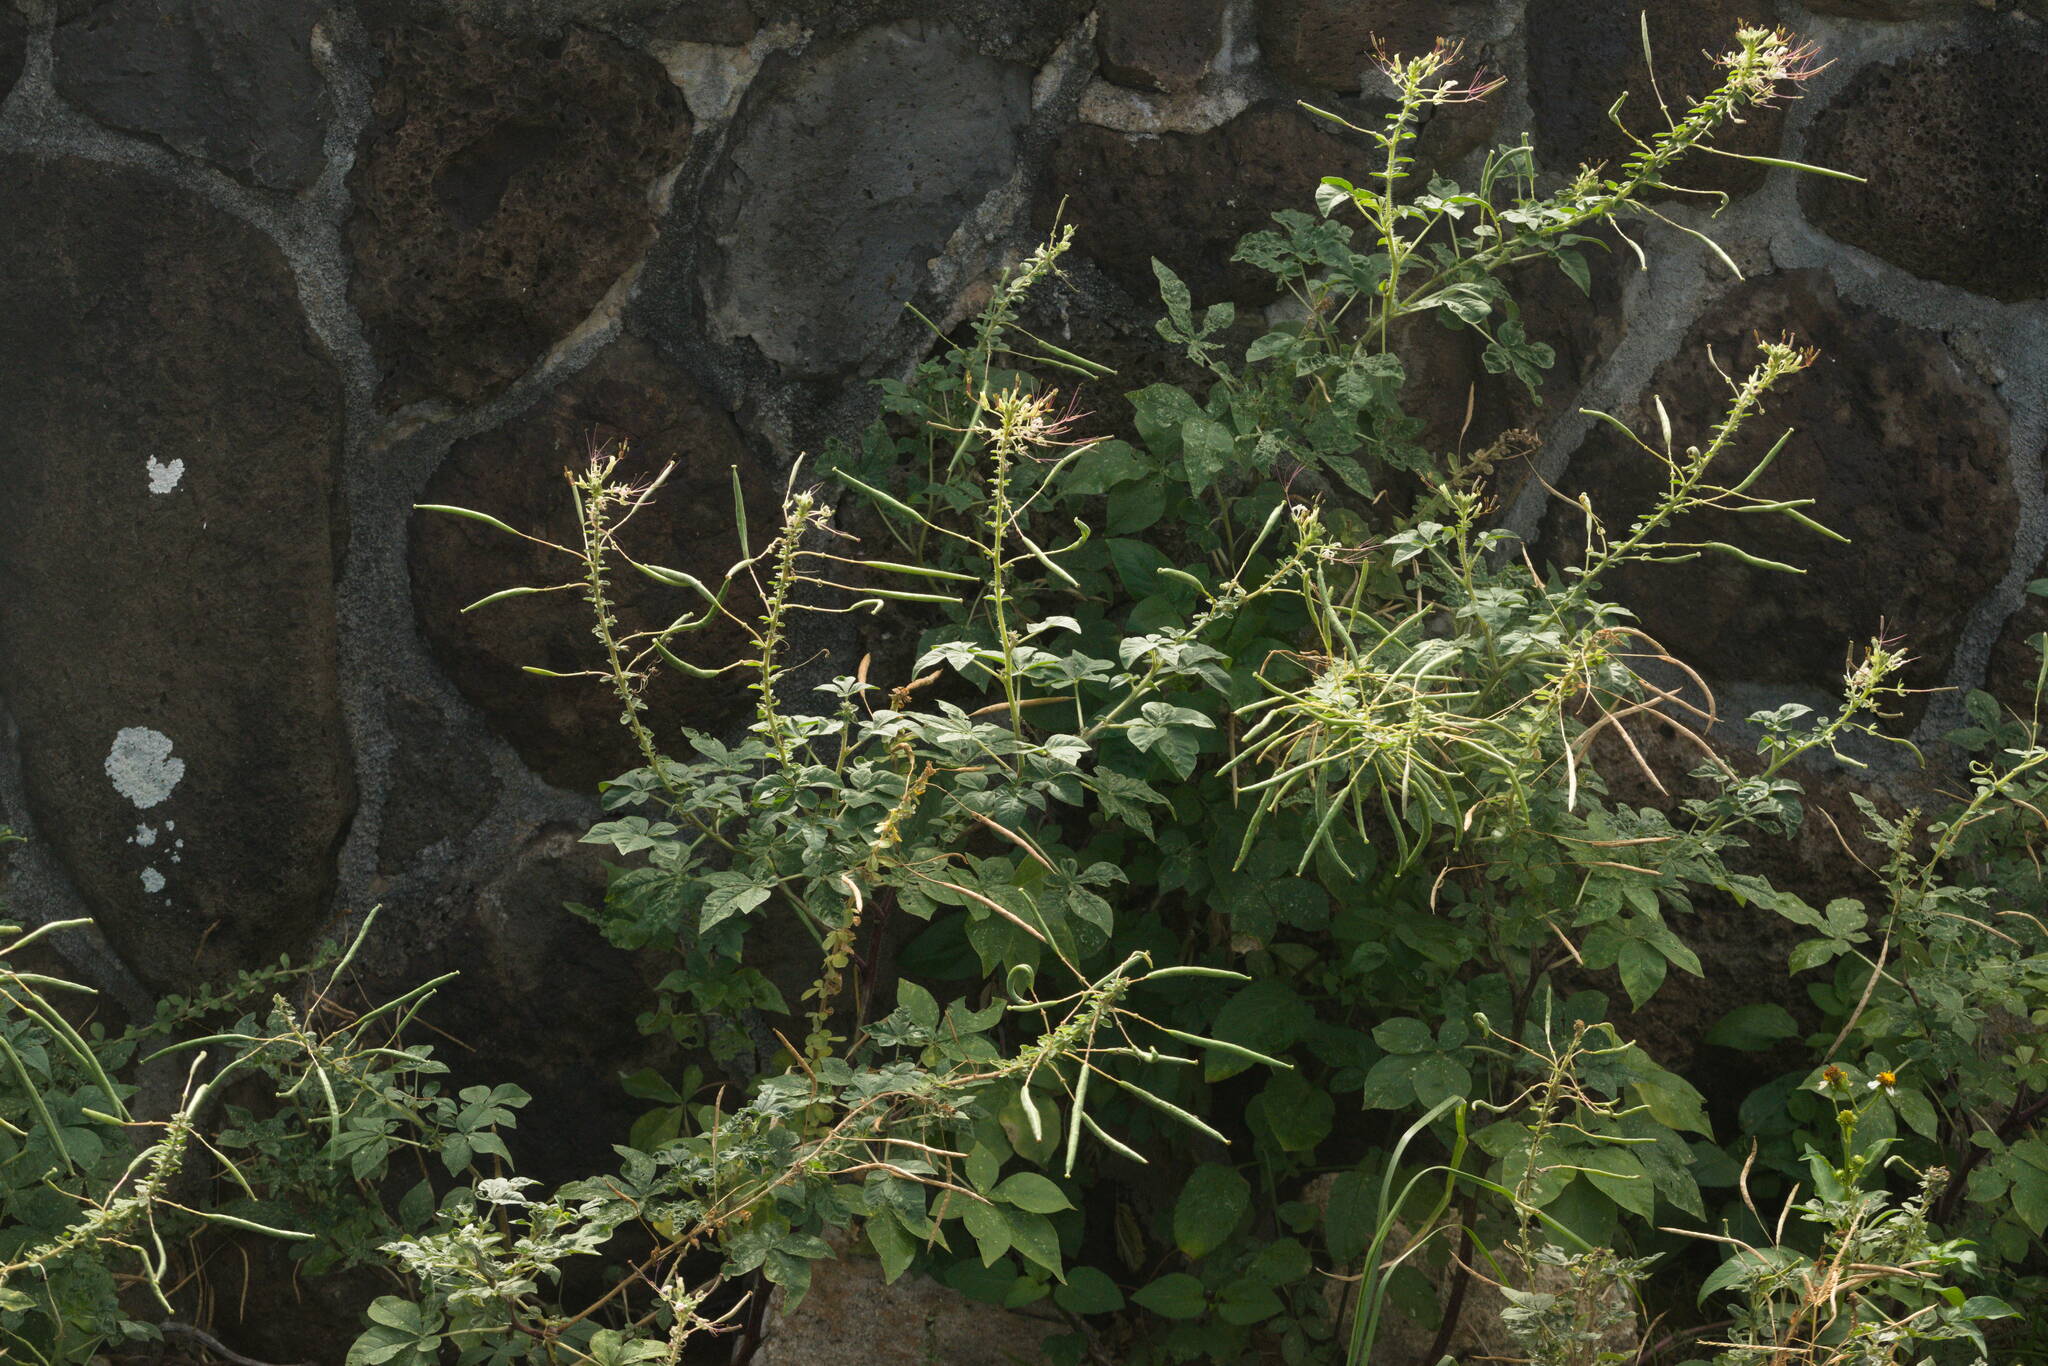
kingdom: Plantae
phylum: Tracheophyta
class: Magnoliopsida
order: Brassicales
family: Cleomaceae
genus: Gynandropsis
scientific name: Gynandropsis gynandra
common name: Spiderwisp
